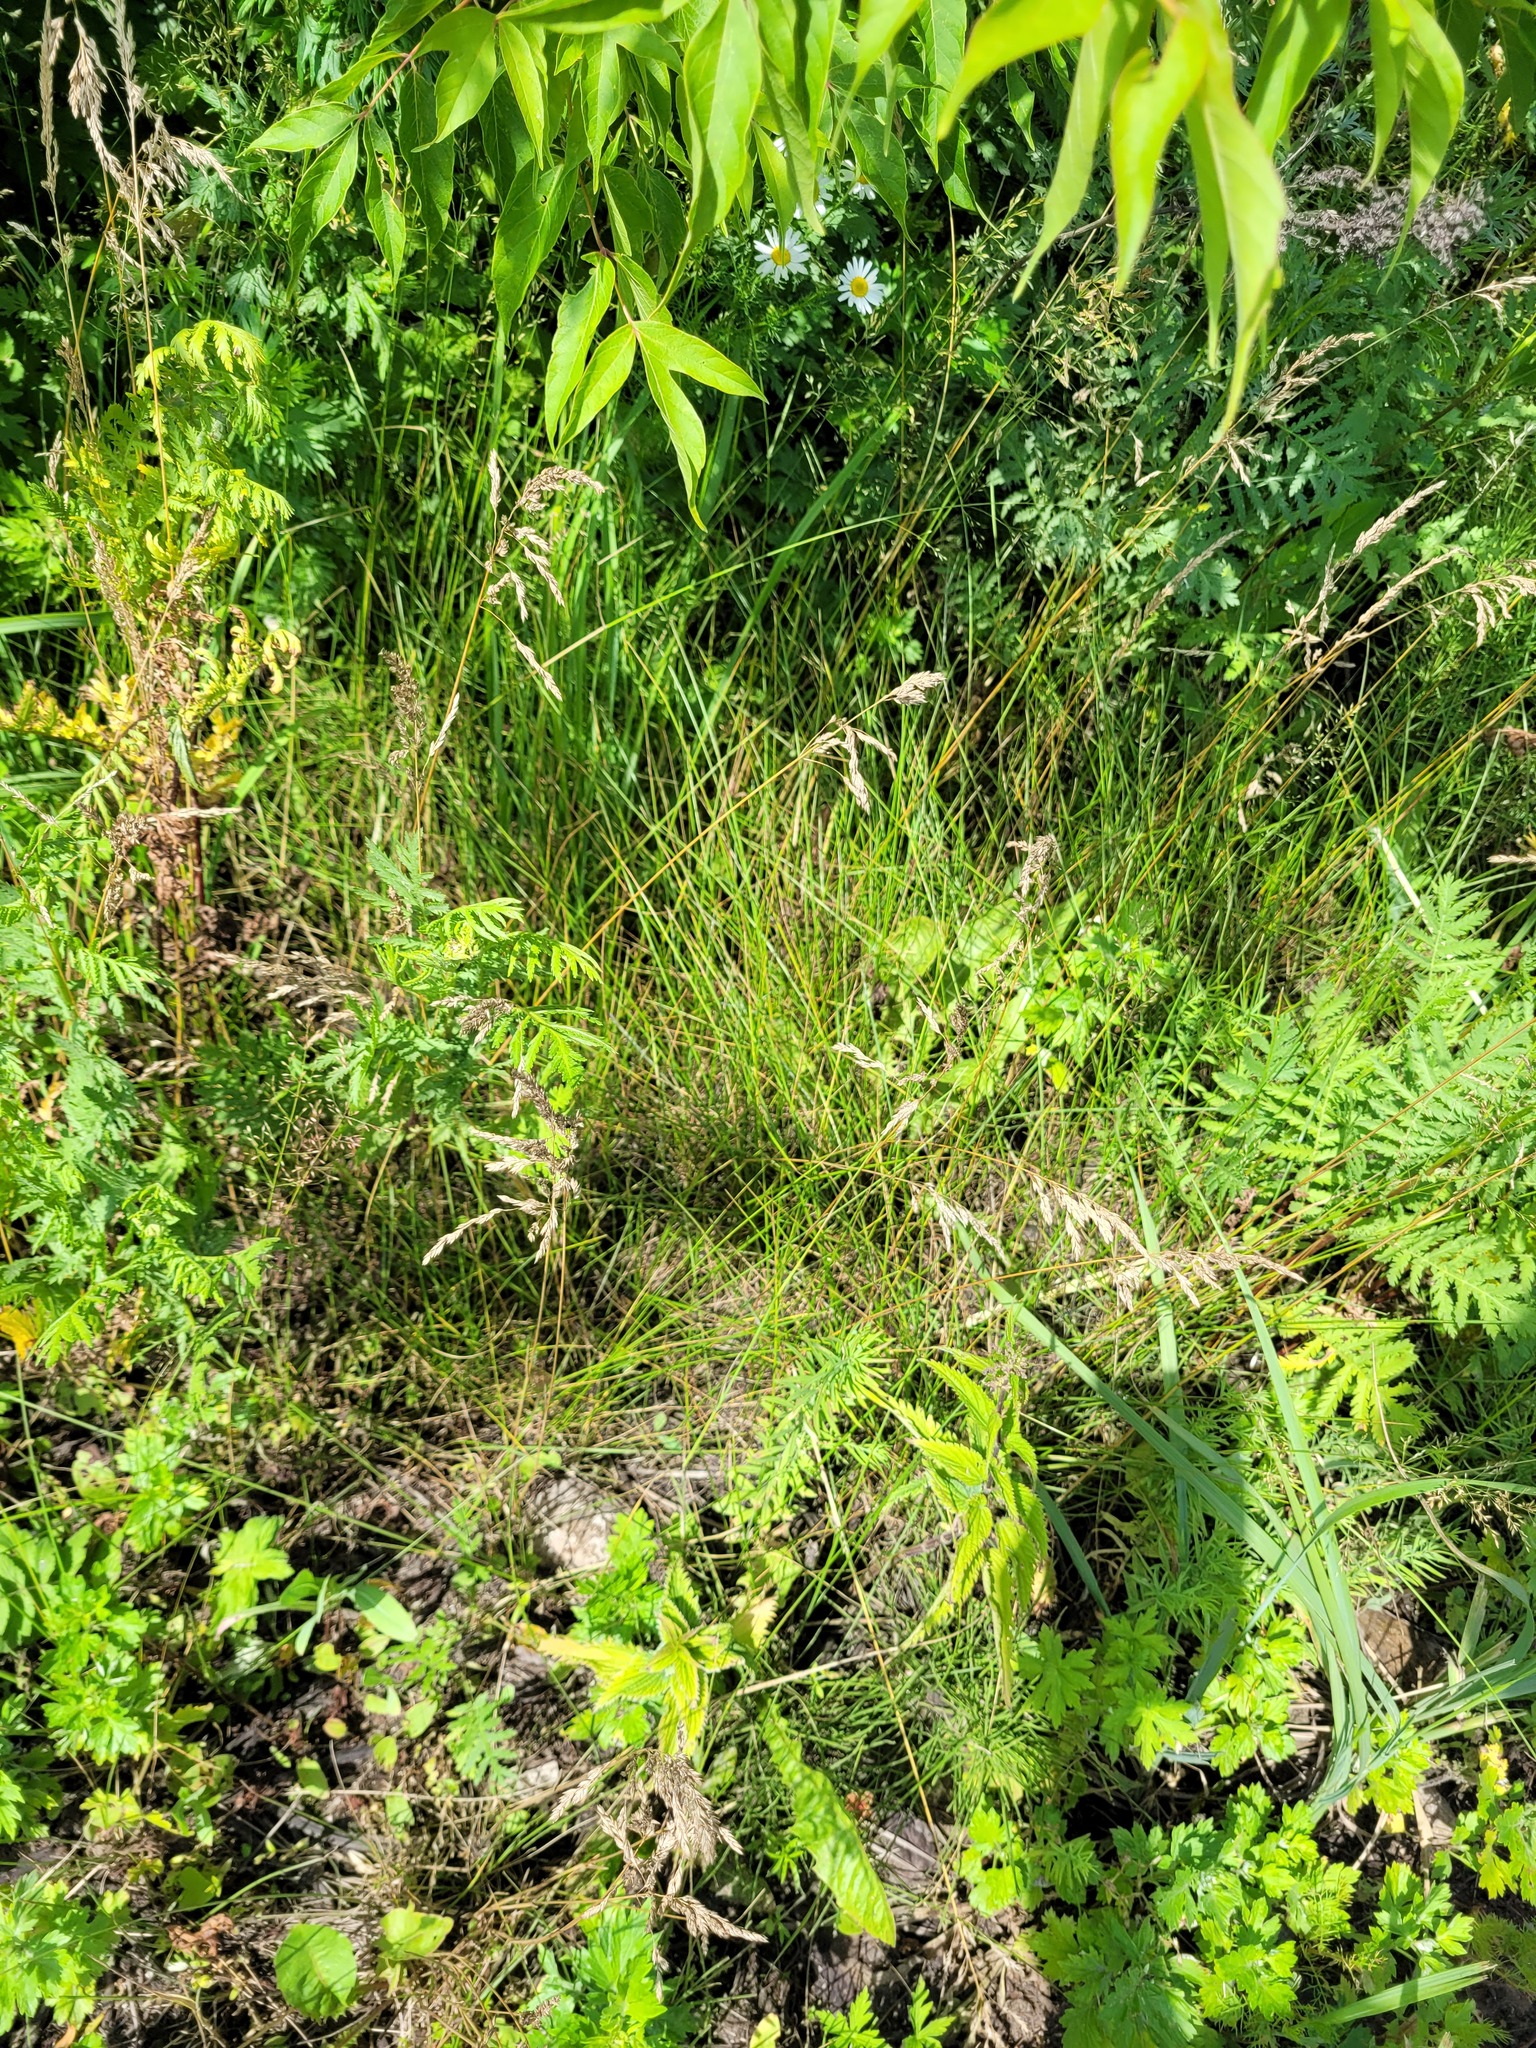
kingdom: Plantae
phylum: Tracheophyta
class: Liliopsida
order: Poales
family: Poaceae
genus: Poa
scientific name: Poa angustifolia
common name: Narrow-leaved meadow-grass
